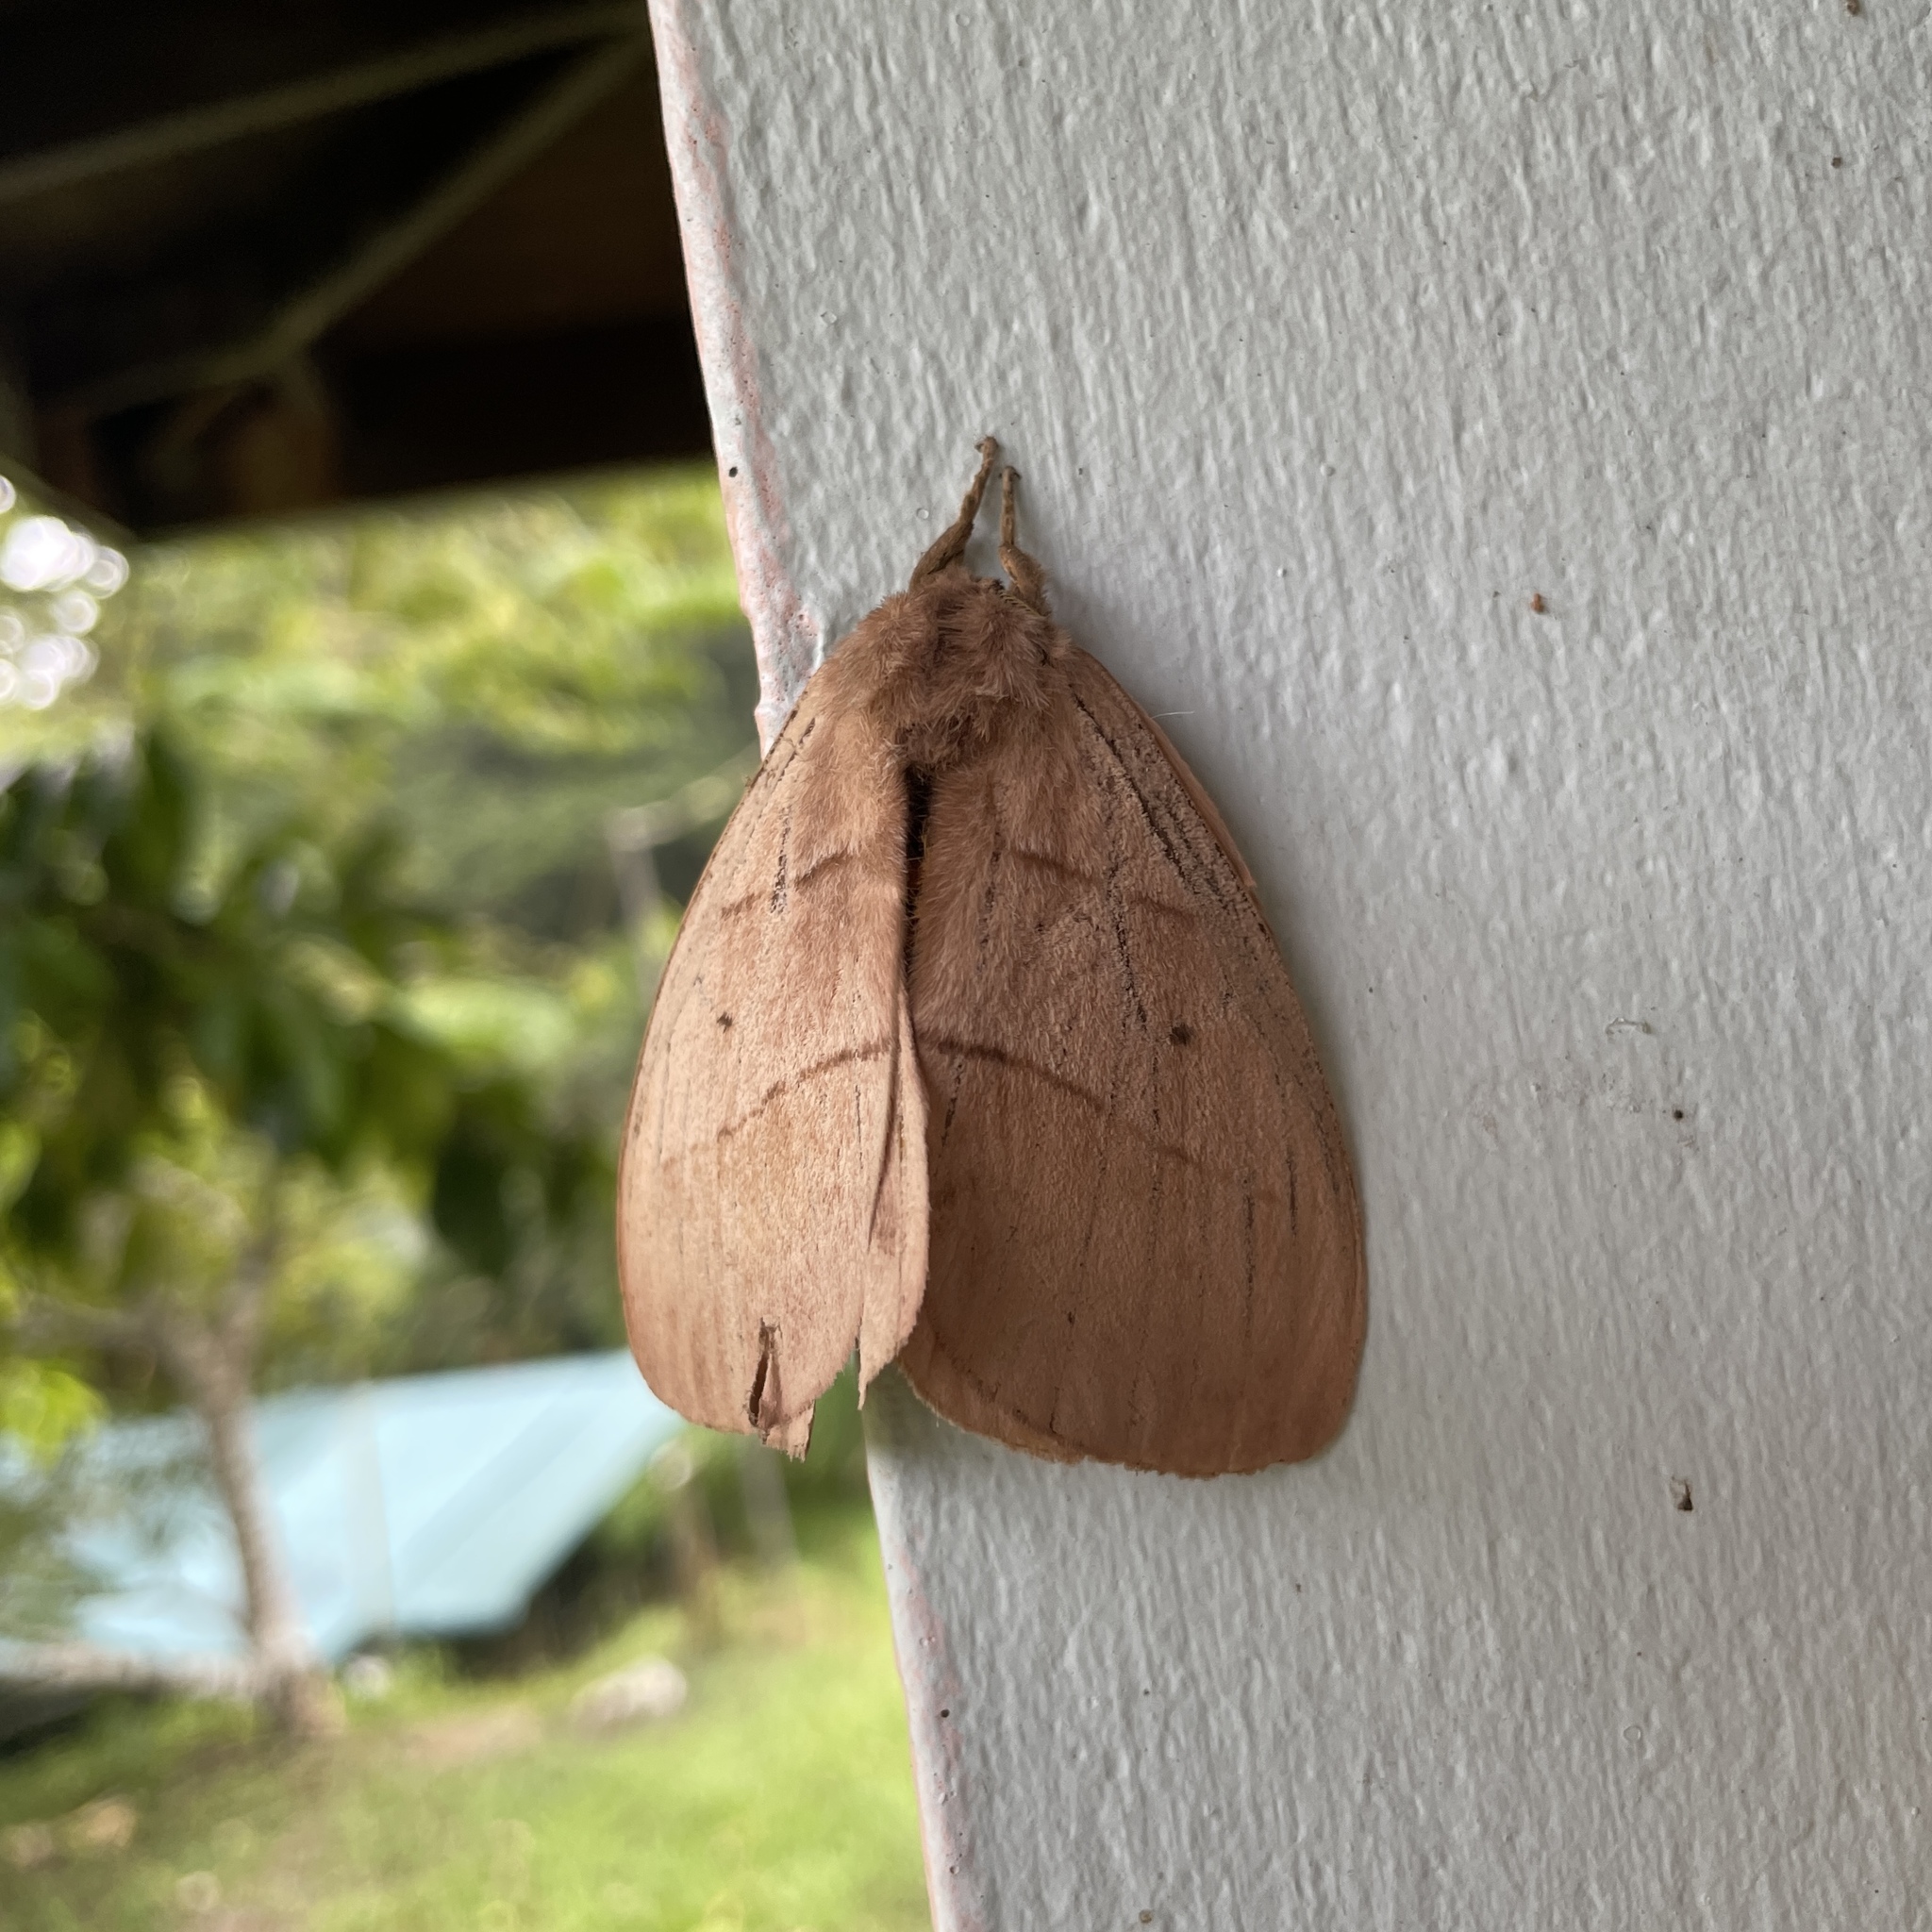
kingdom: Animalia
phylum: Arthropoda
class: Insecta
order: Lepidoptera
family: Saturniidae
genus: Periphoba
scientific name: Periphoba augur
